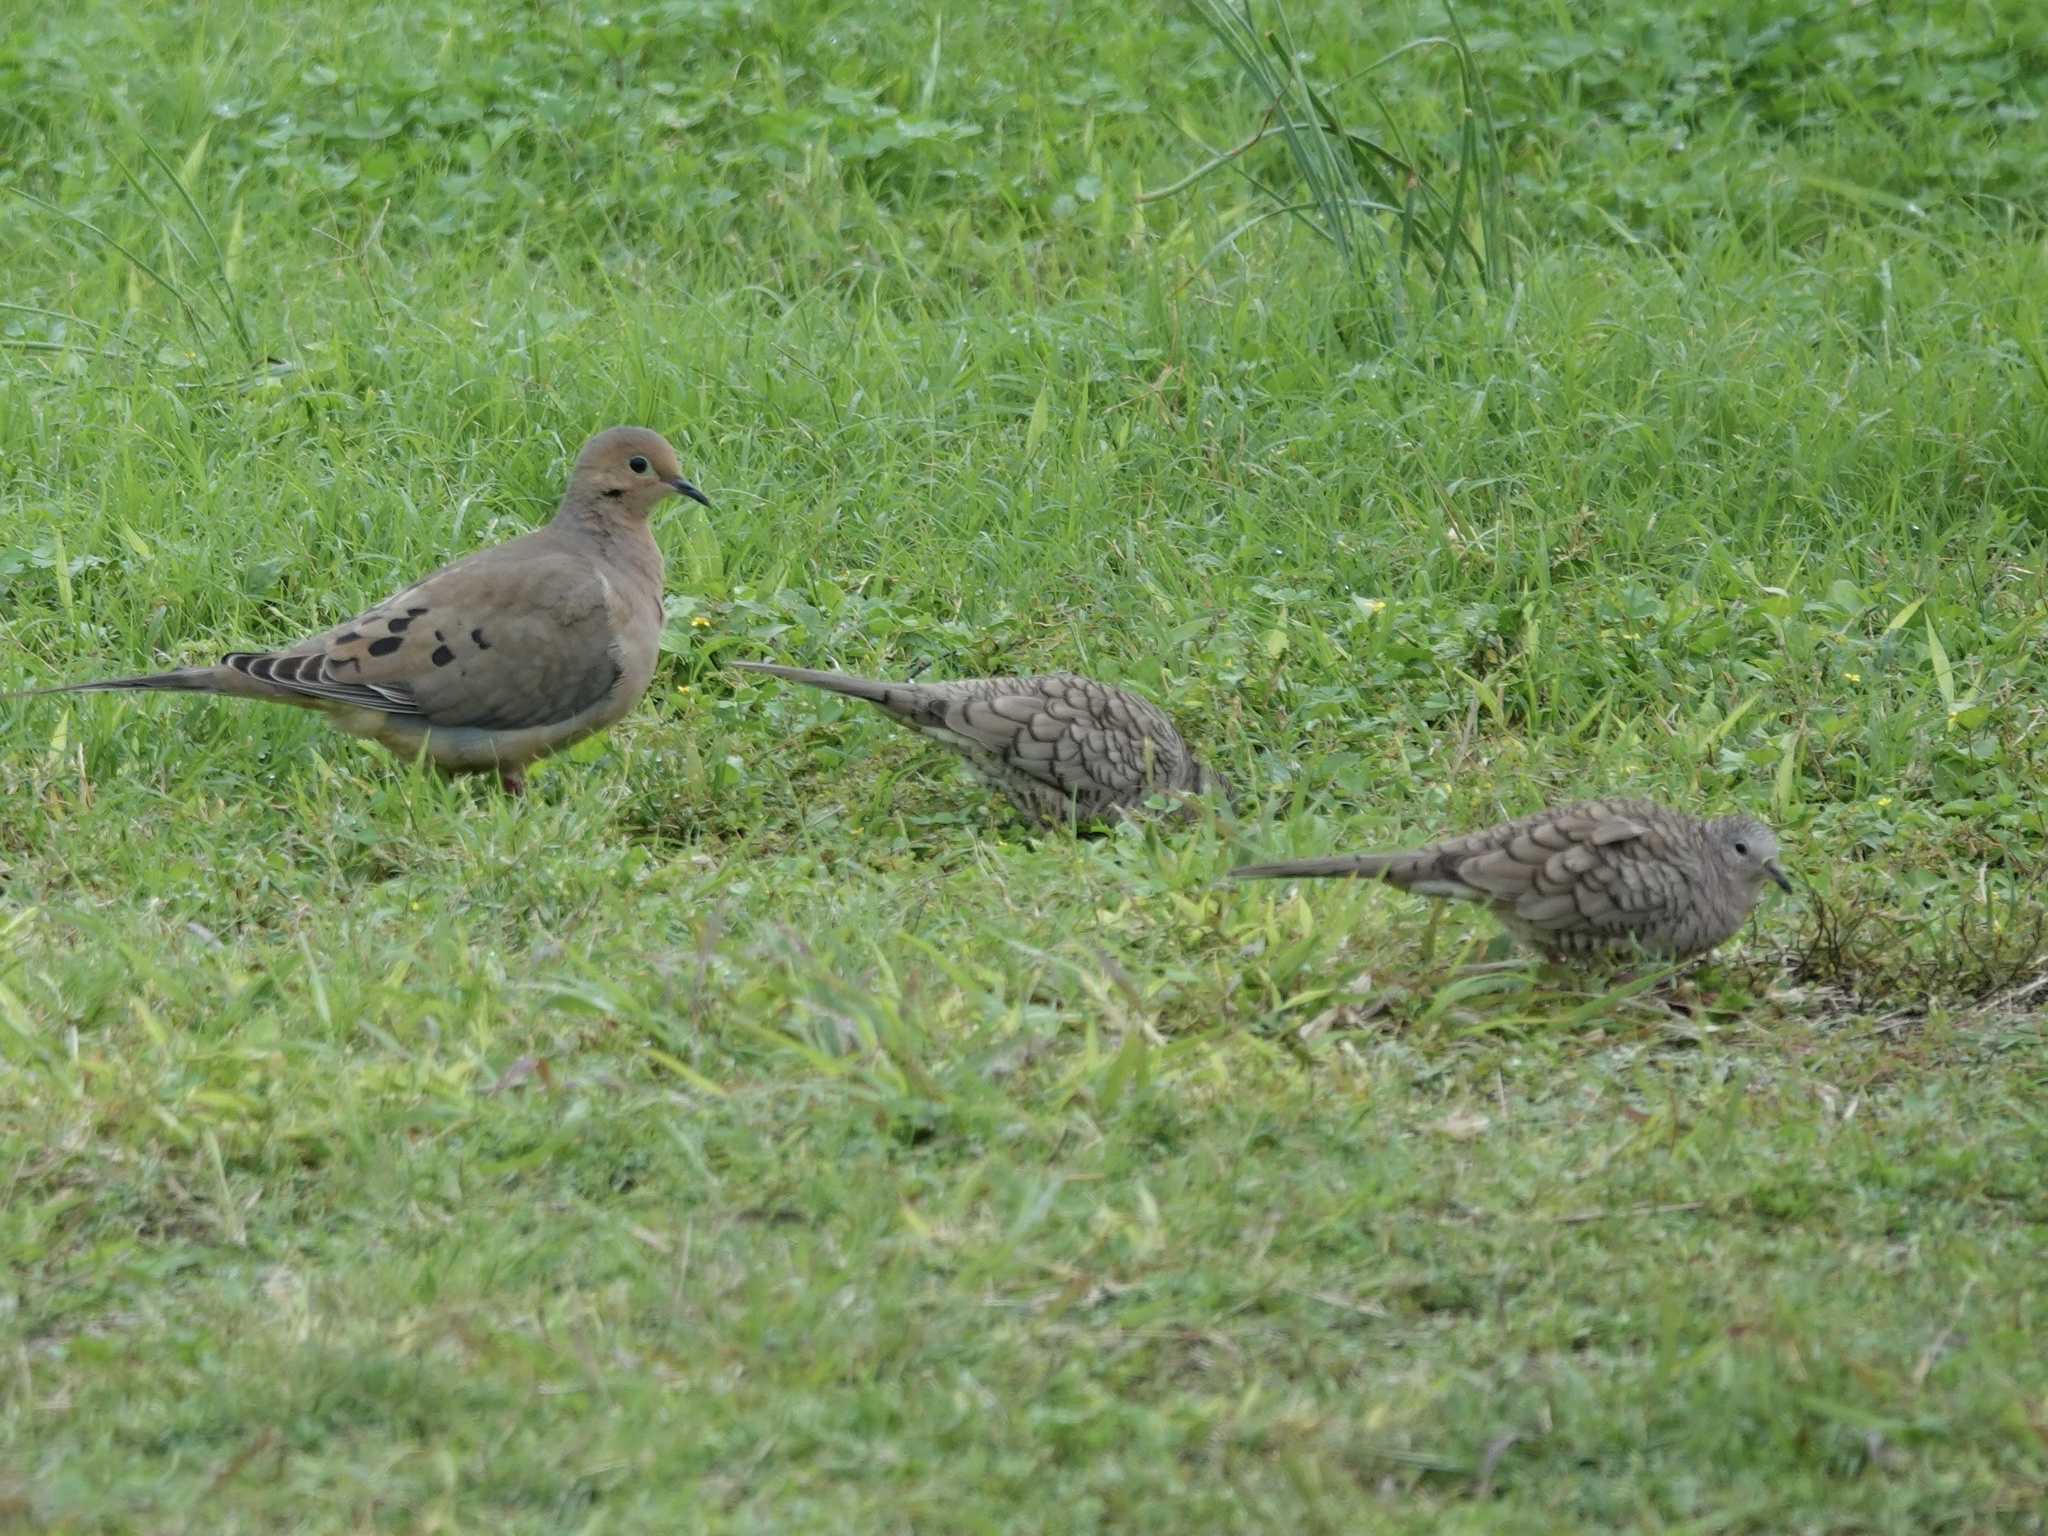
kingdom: Animalia
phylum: Chordata
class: Aves
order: Columbiformes
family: Columbidae
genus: Columbina
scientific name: Columbina inca
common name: Inca dove
